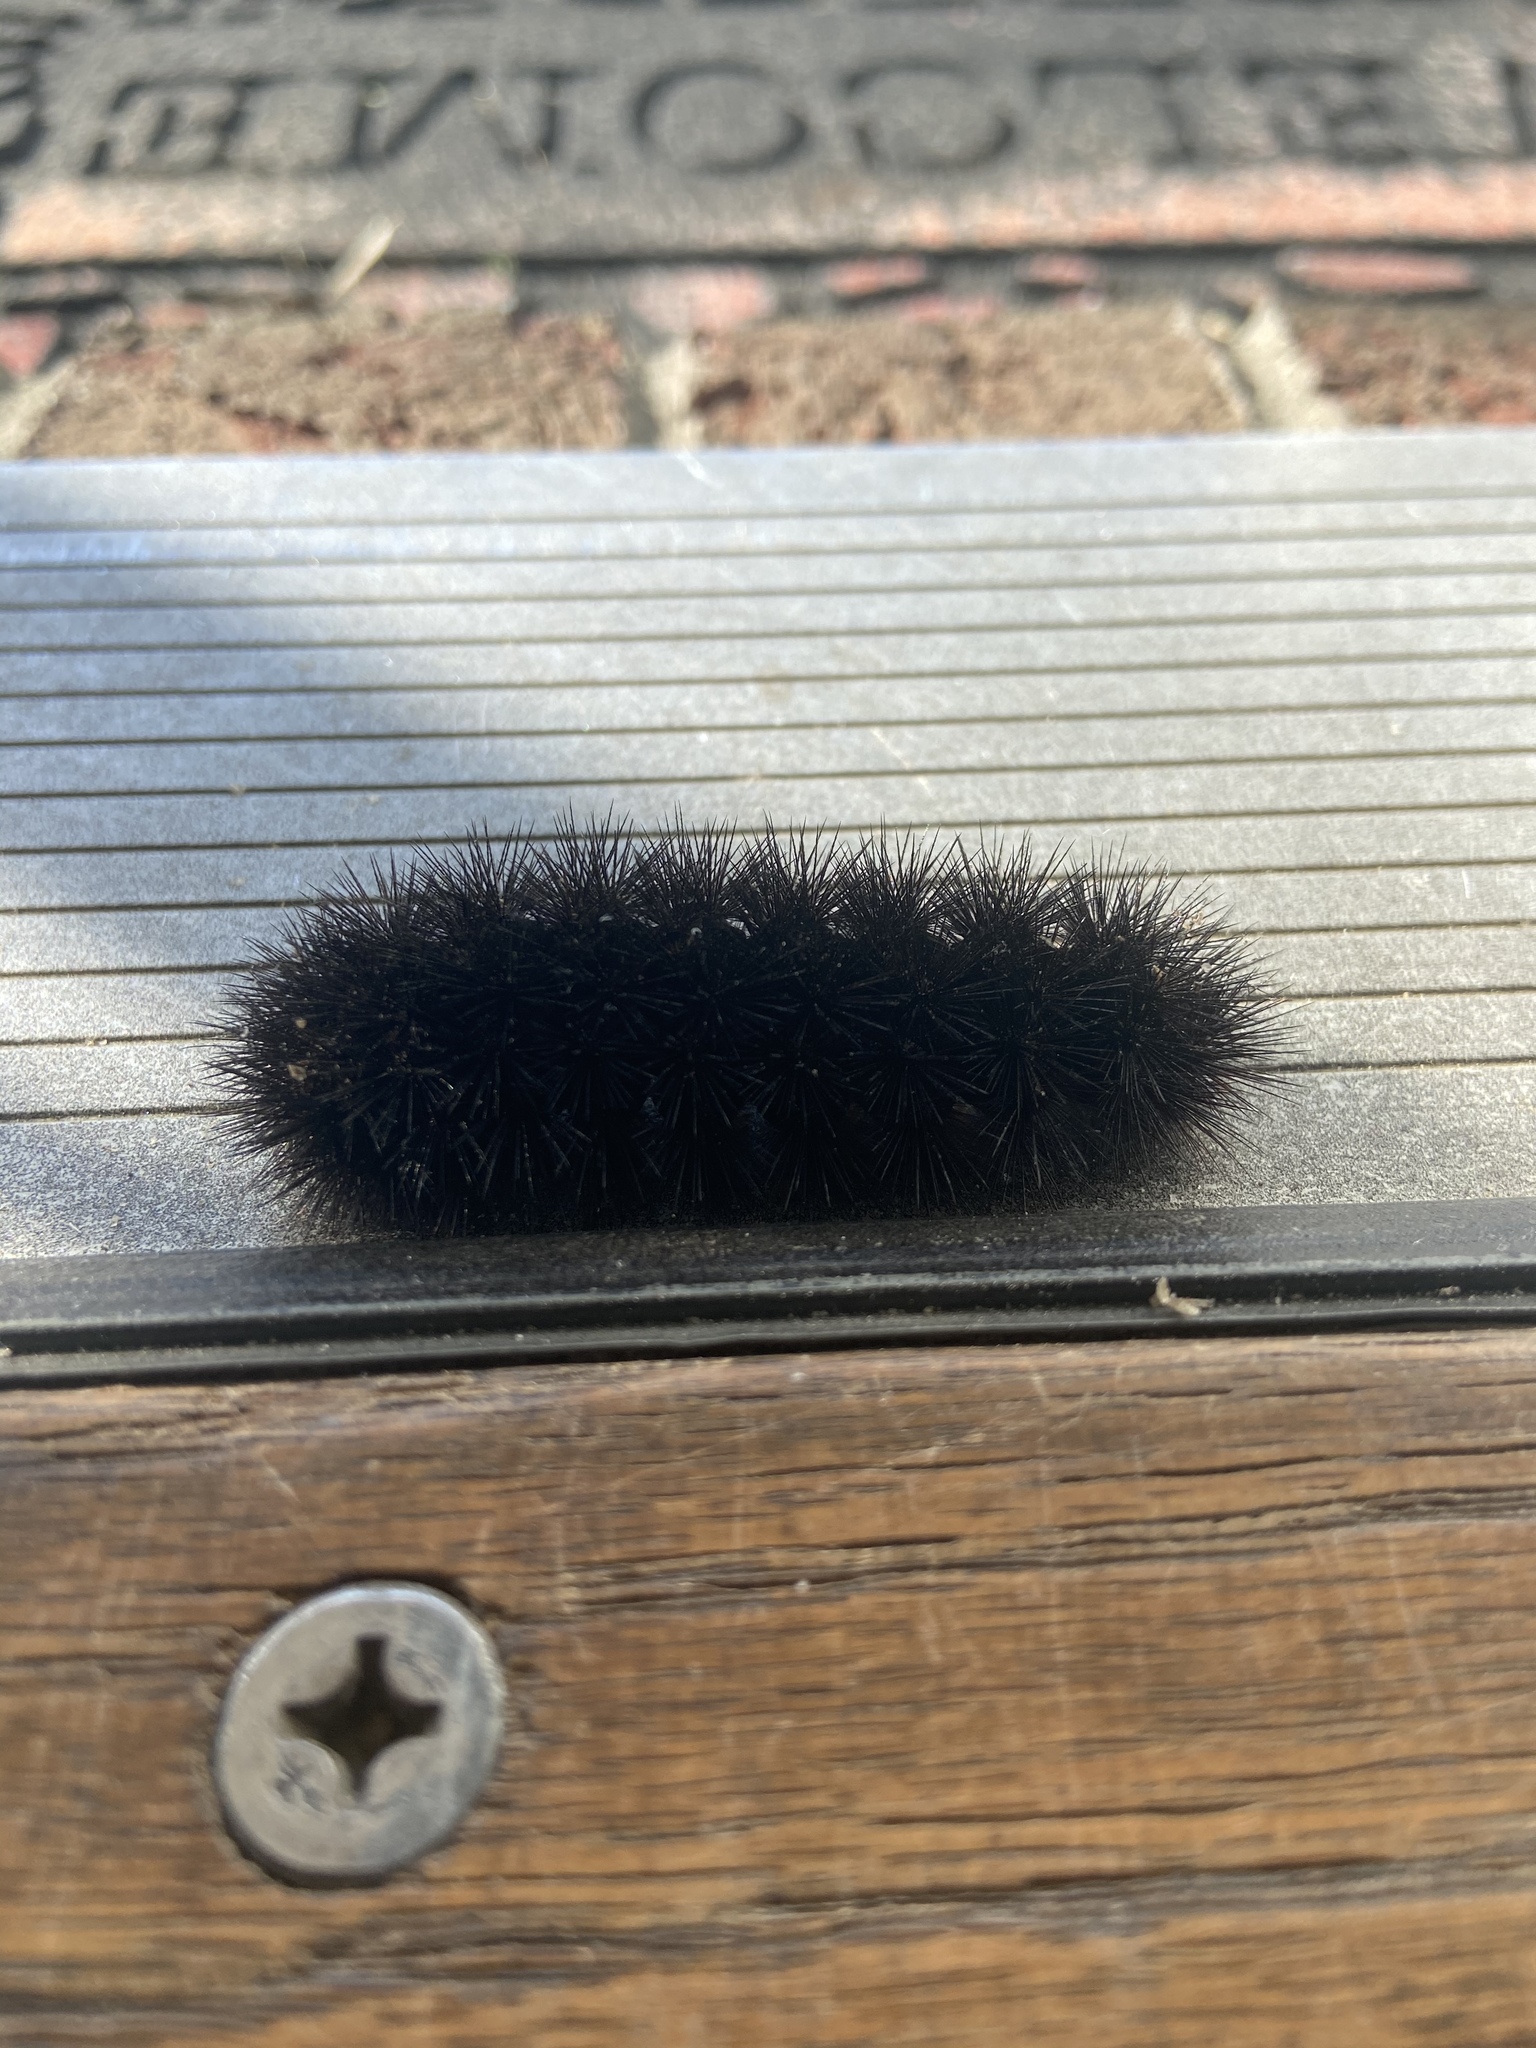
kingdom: Animalia
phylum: Arthropoda
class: Insecta
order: Lepidoptera
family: Erebidae
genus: Hypercompe
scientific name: Hypercompe scribonia
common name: Giant leopard moth
